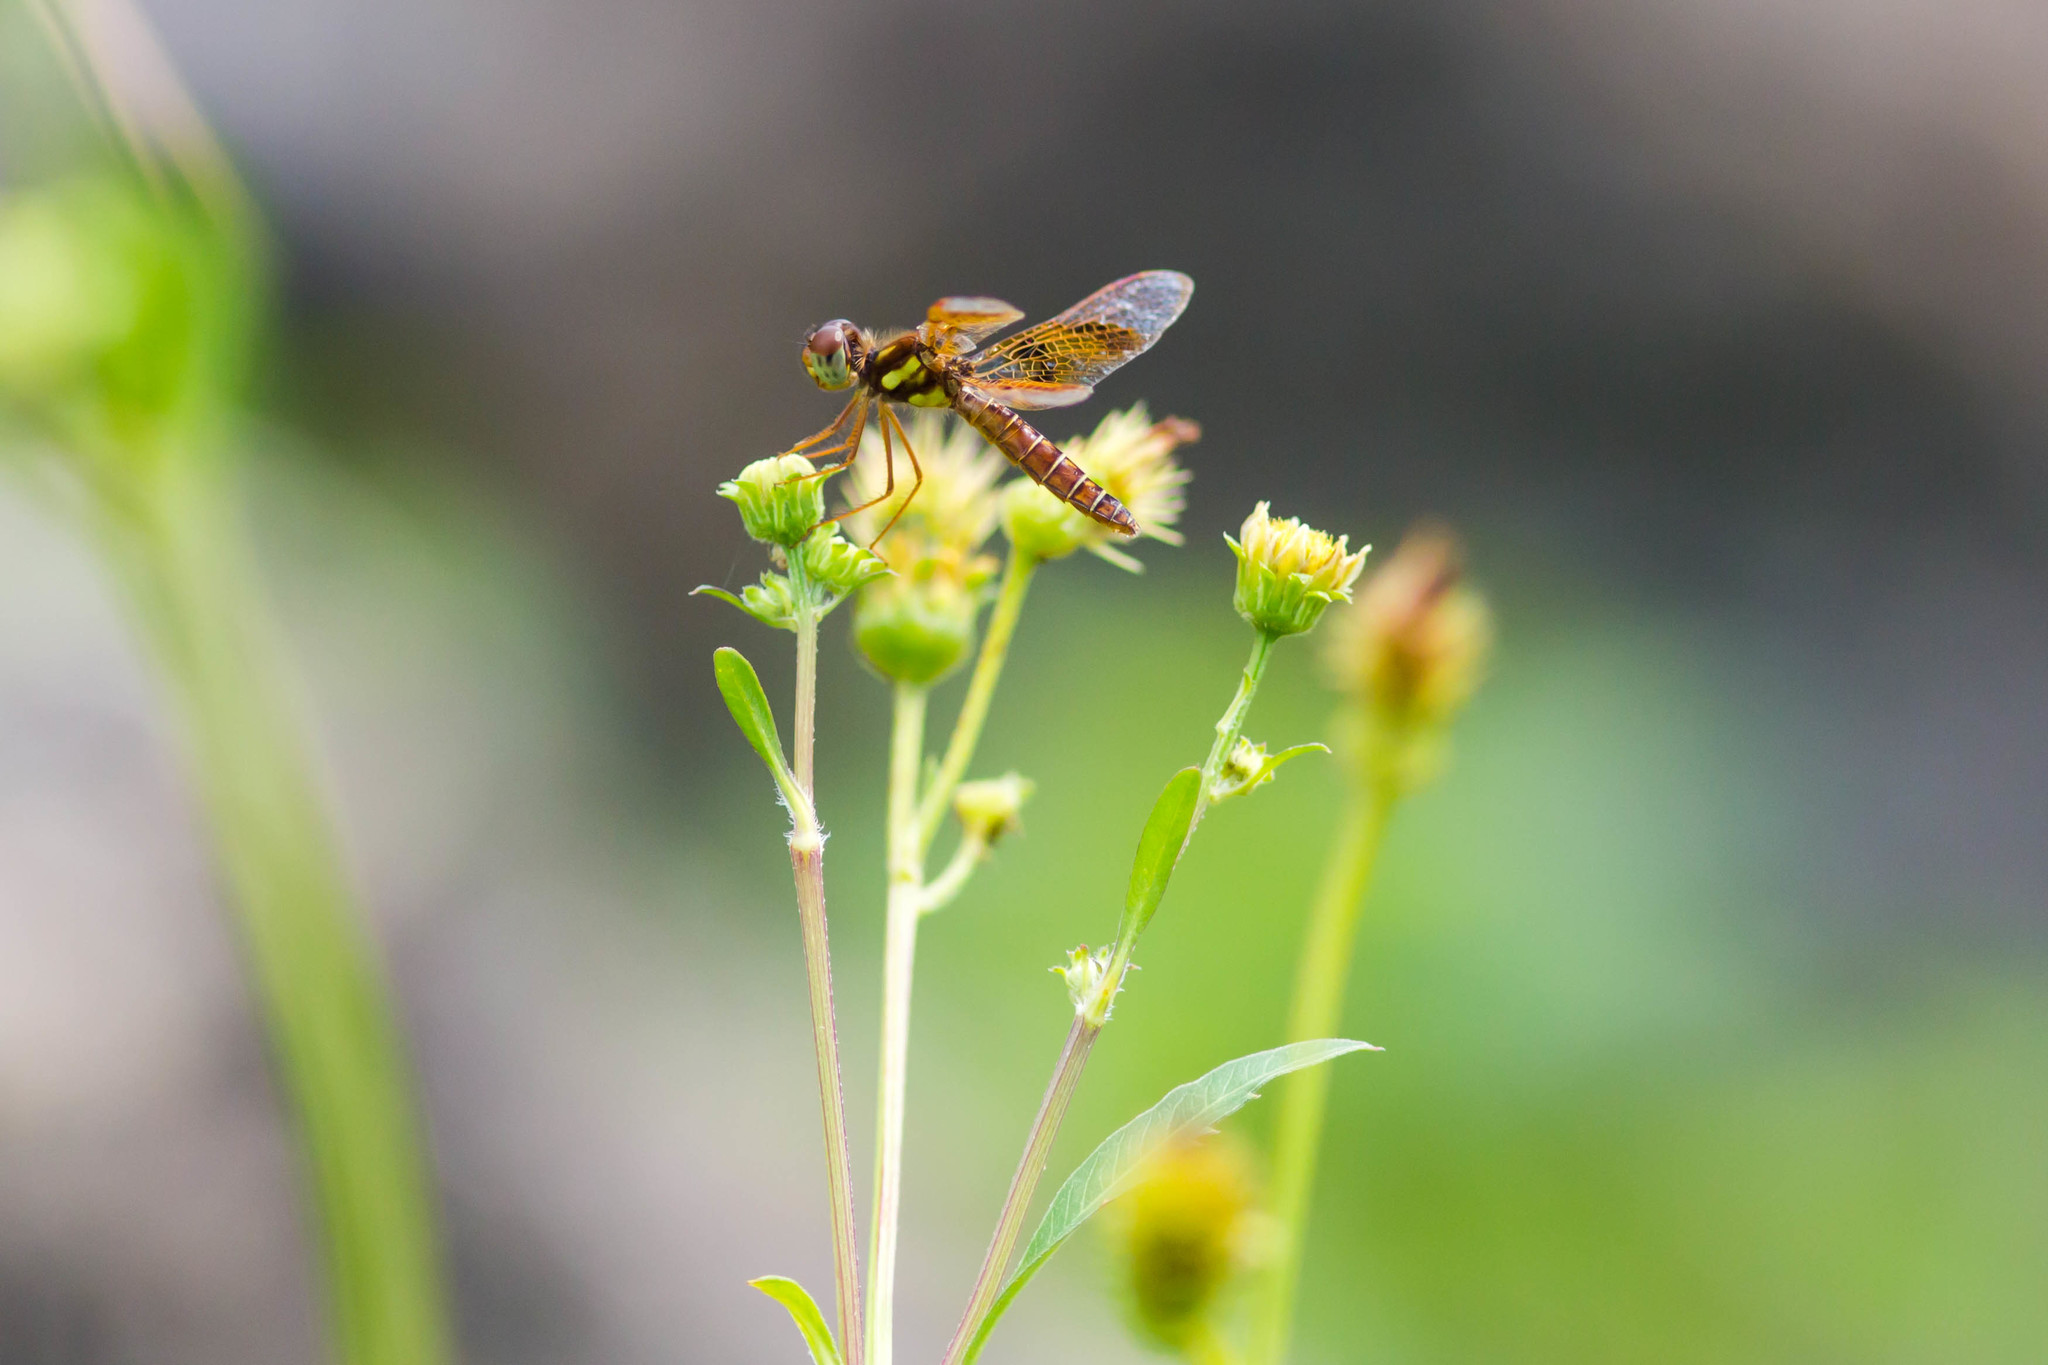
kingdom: Animalia
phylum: Arthropoda
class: Insecta
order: Odonata
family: Libellulidae
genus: Perithemis
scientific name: Perithemis tenera
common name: Eastern amberwing
